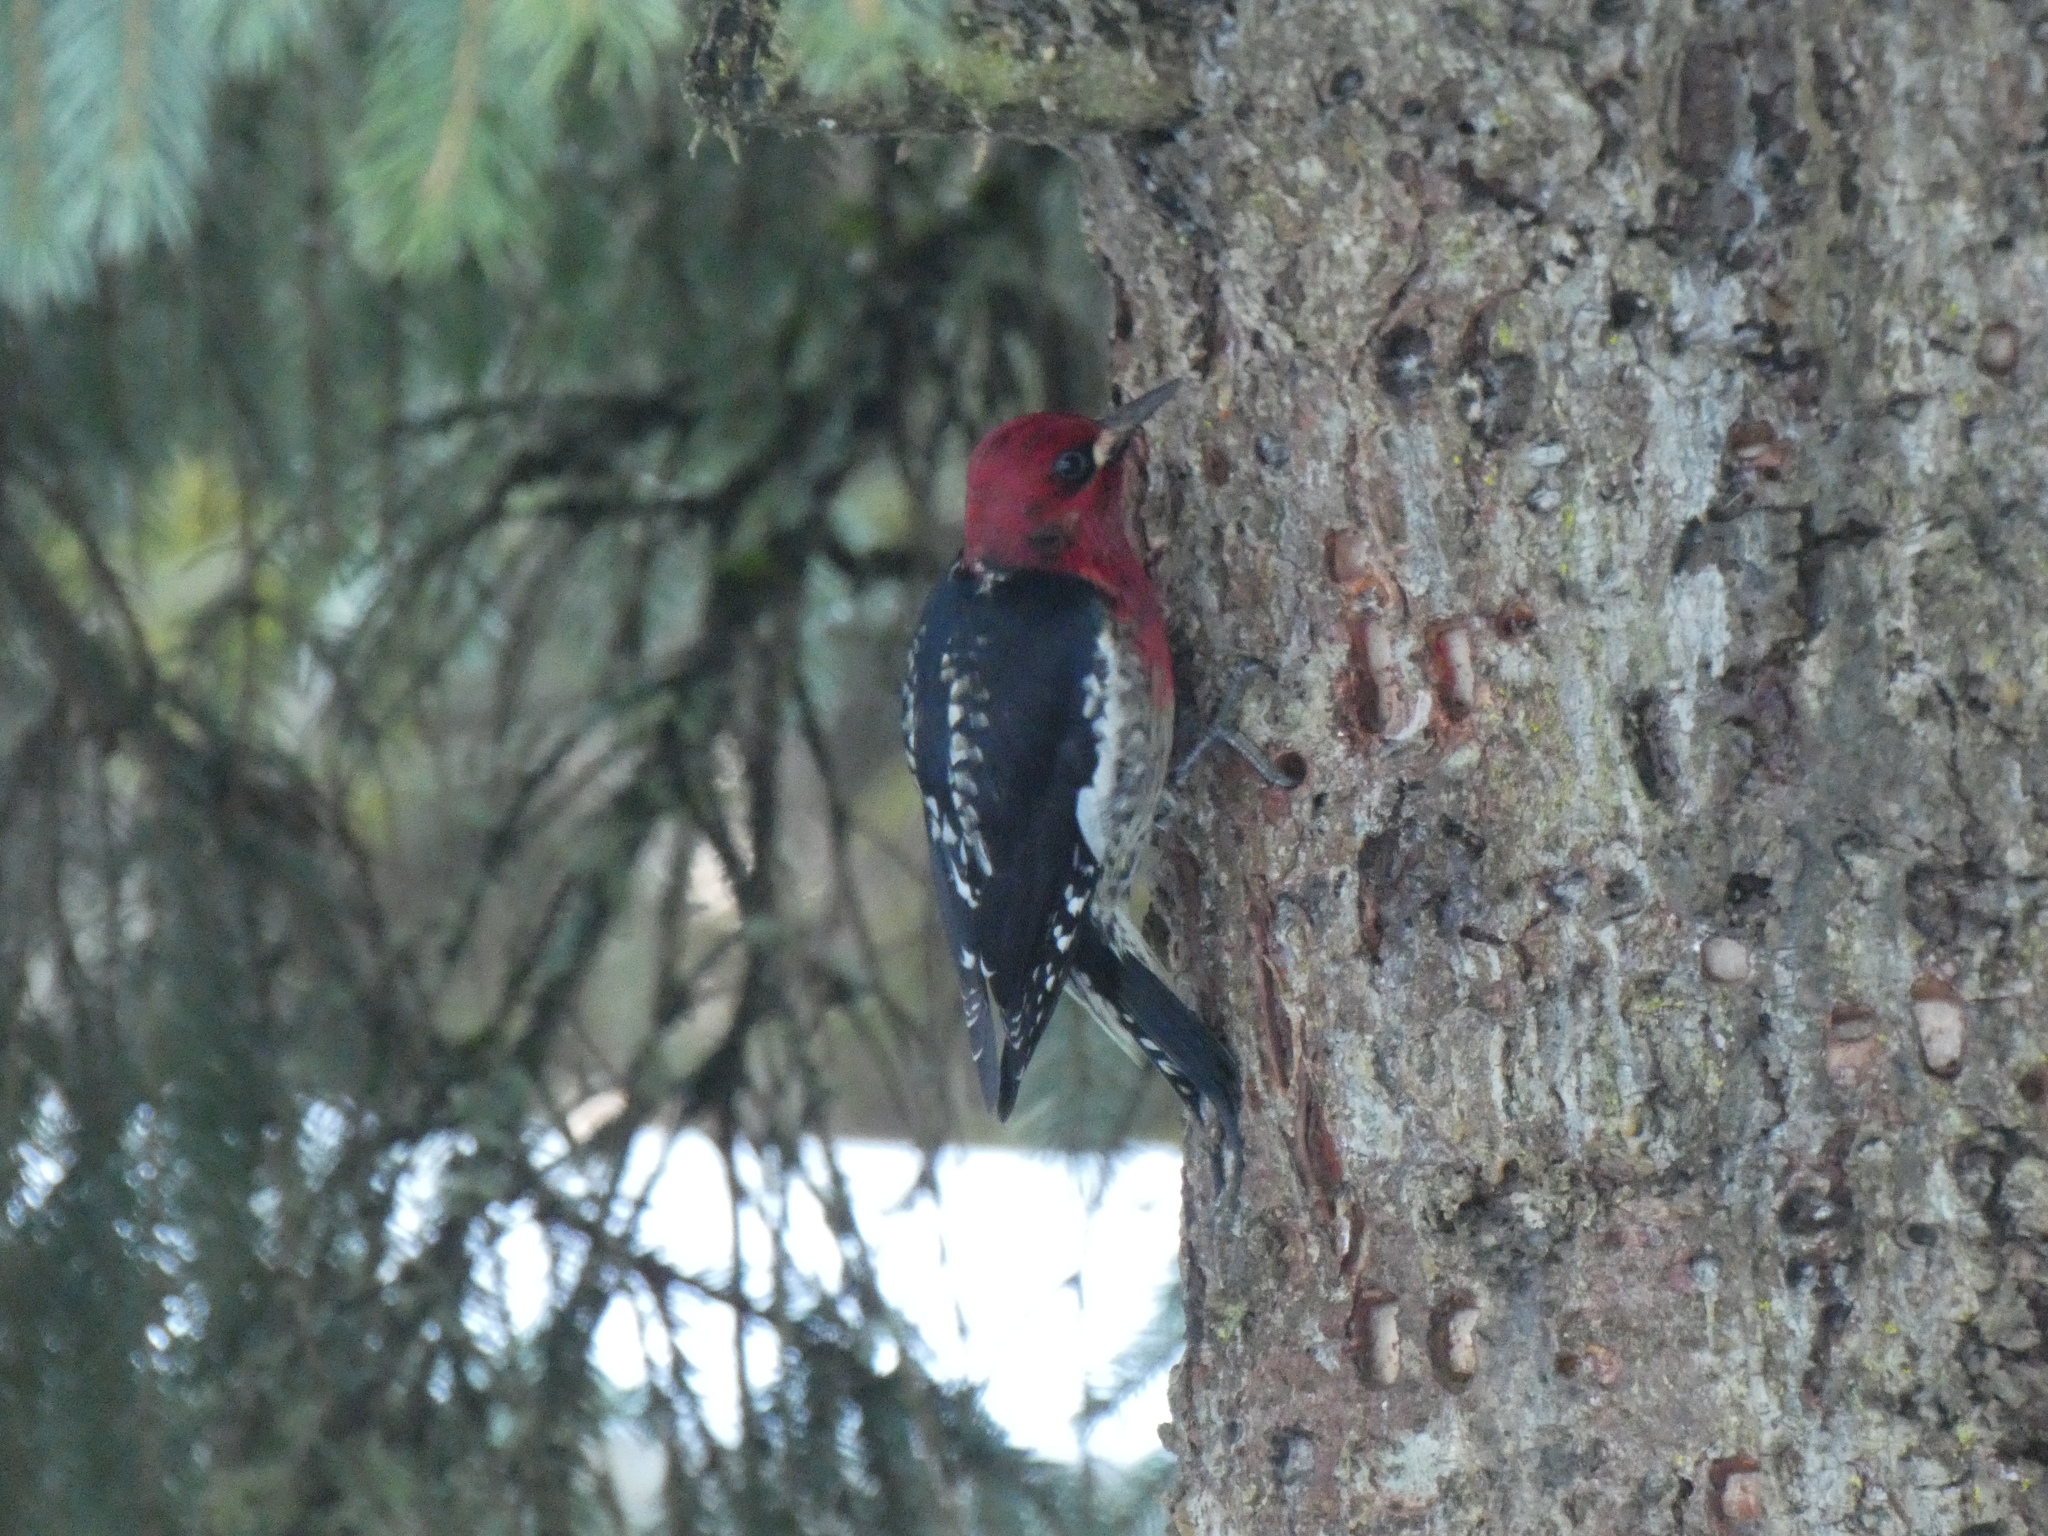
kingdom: Animalia
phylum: Chordata
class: Aves
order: Piciformes
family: Picidae
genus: Sphyrapicus
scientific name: Sphyrapicus ruber
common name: Red-breasted sapsucker
